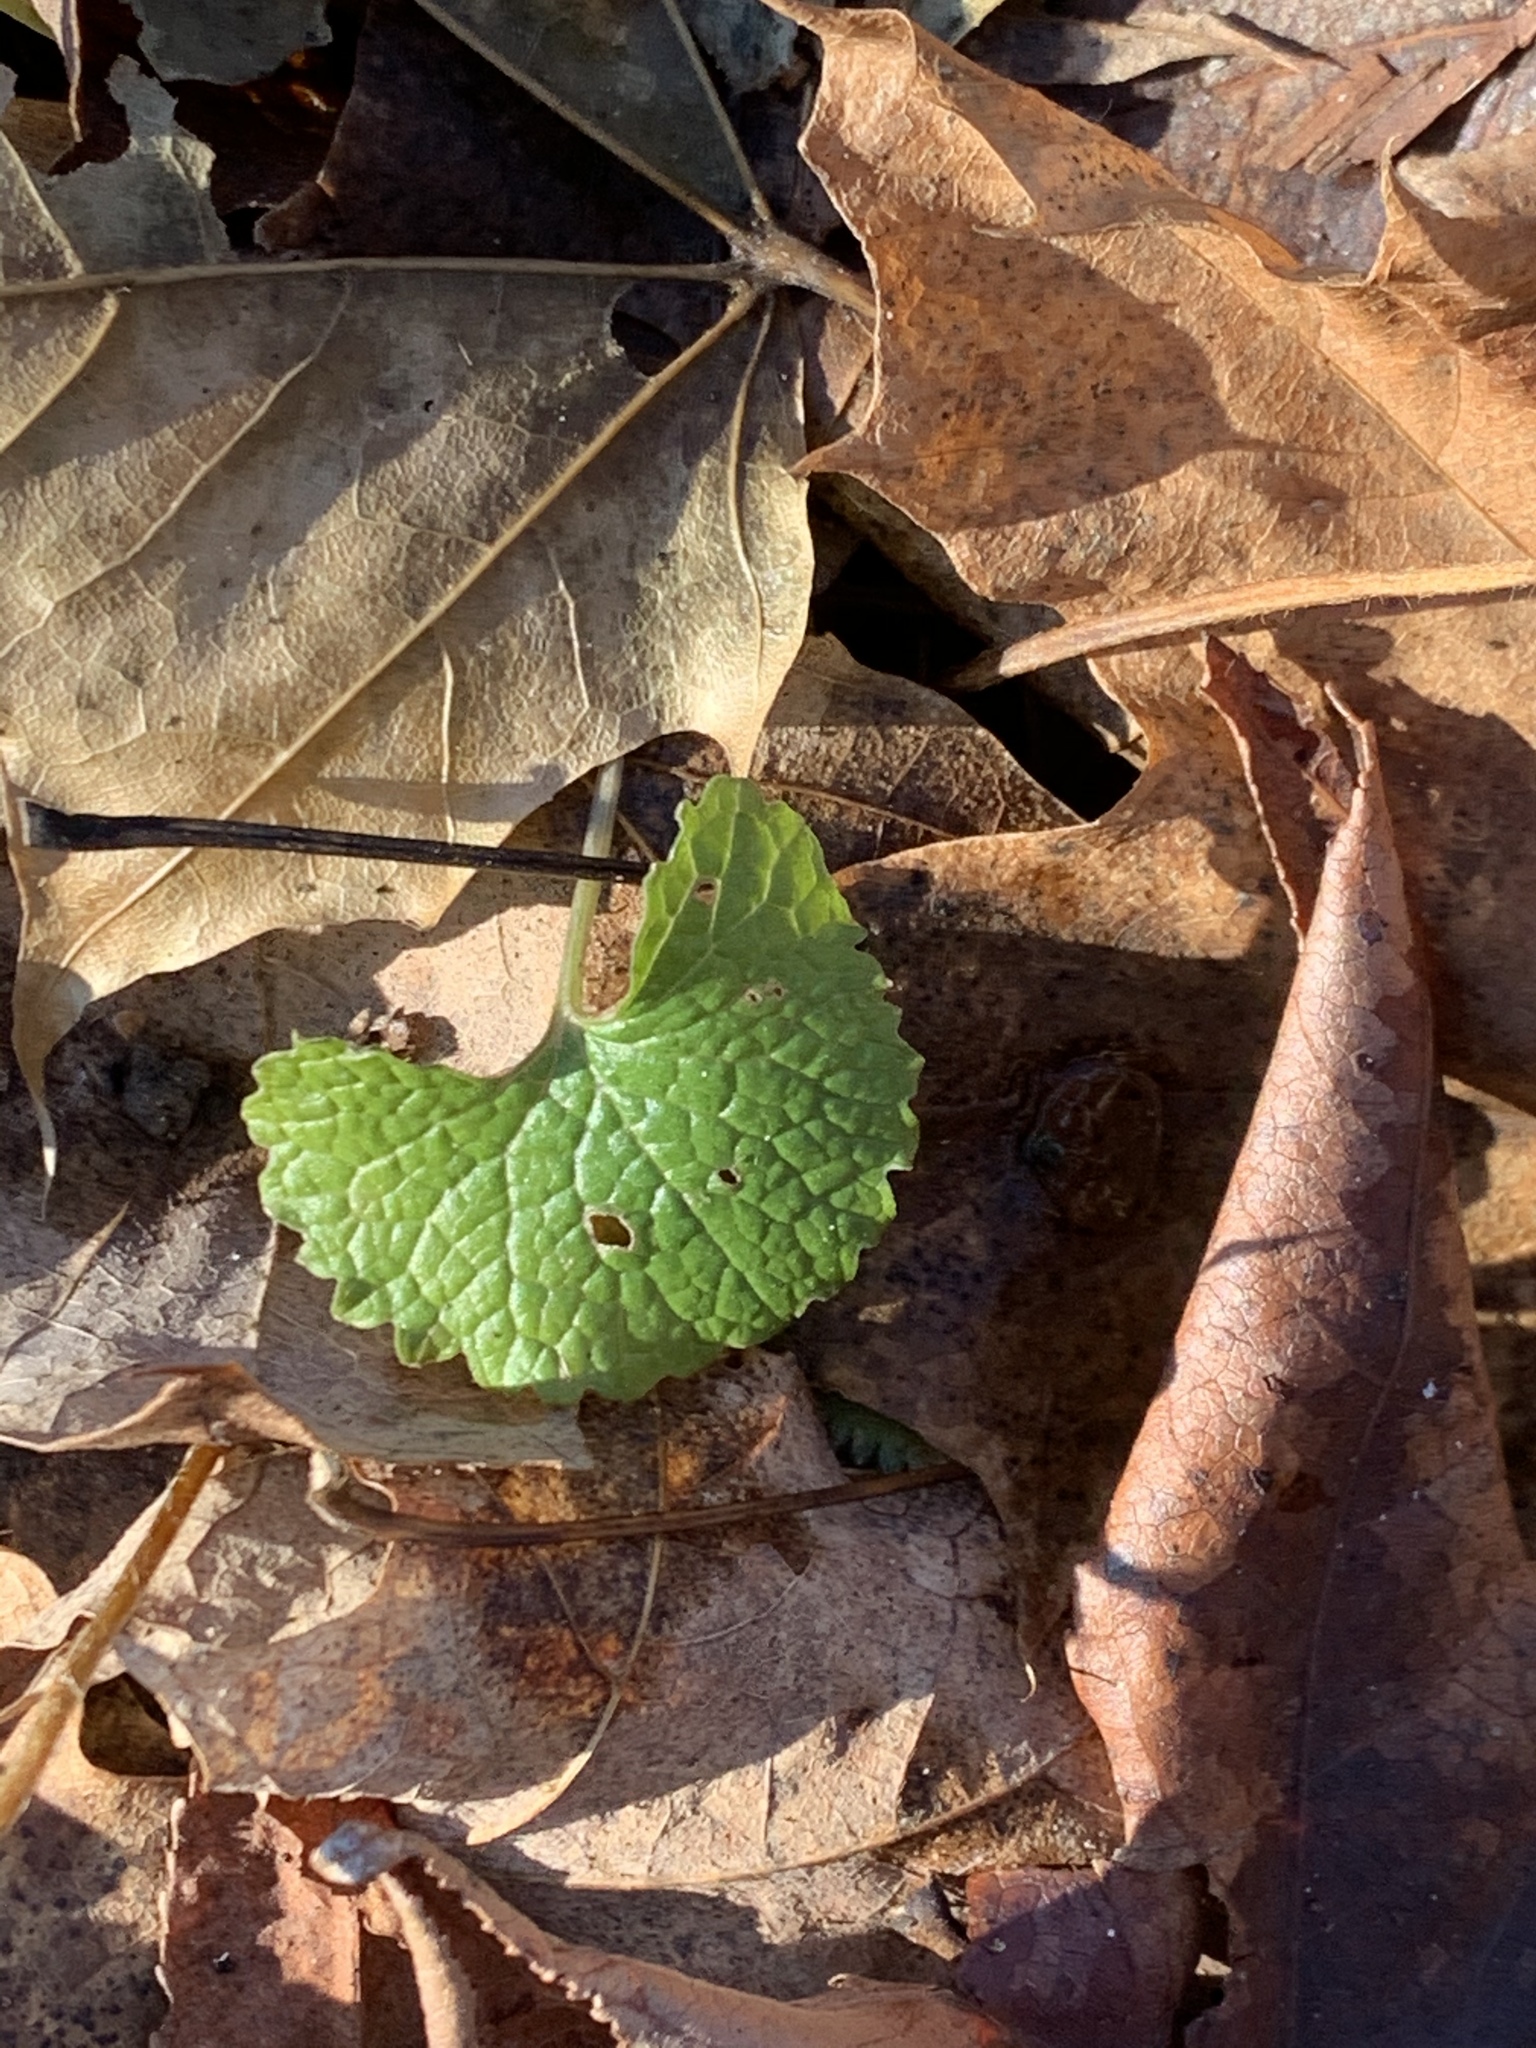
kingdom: Plantae
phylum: Tracheophyta
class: Magnoliopsida
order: Brassicales
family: Brassicaceae
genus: Alliaria
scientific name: Alliaria petiolata
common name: Garlic mustard
